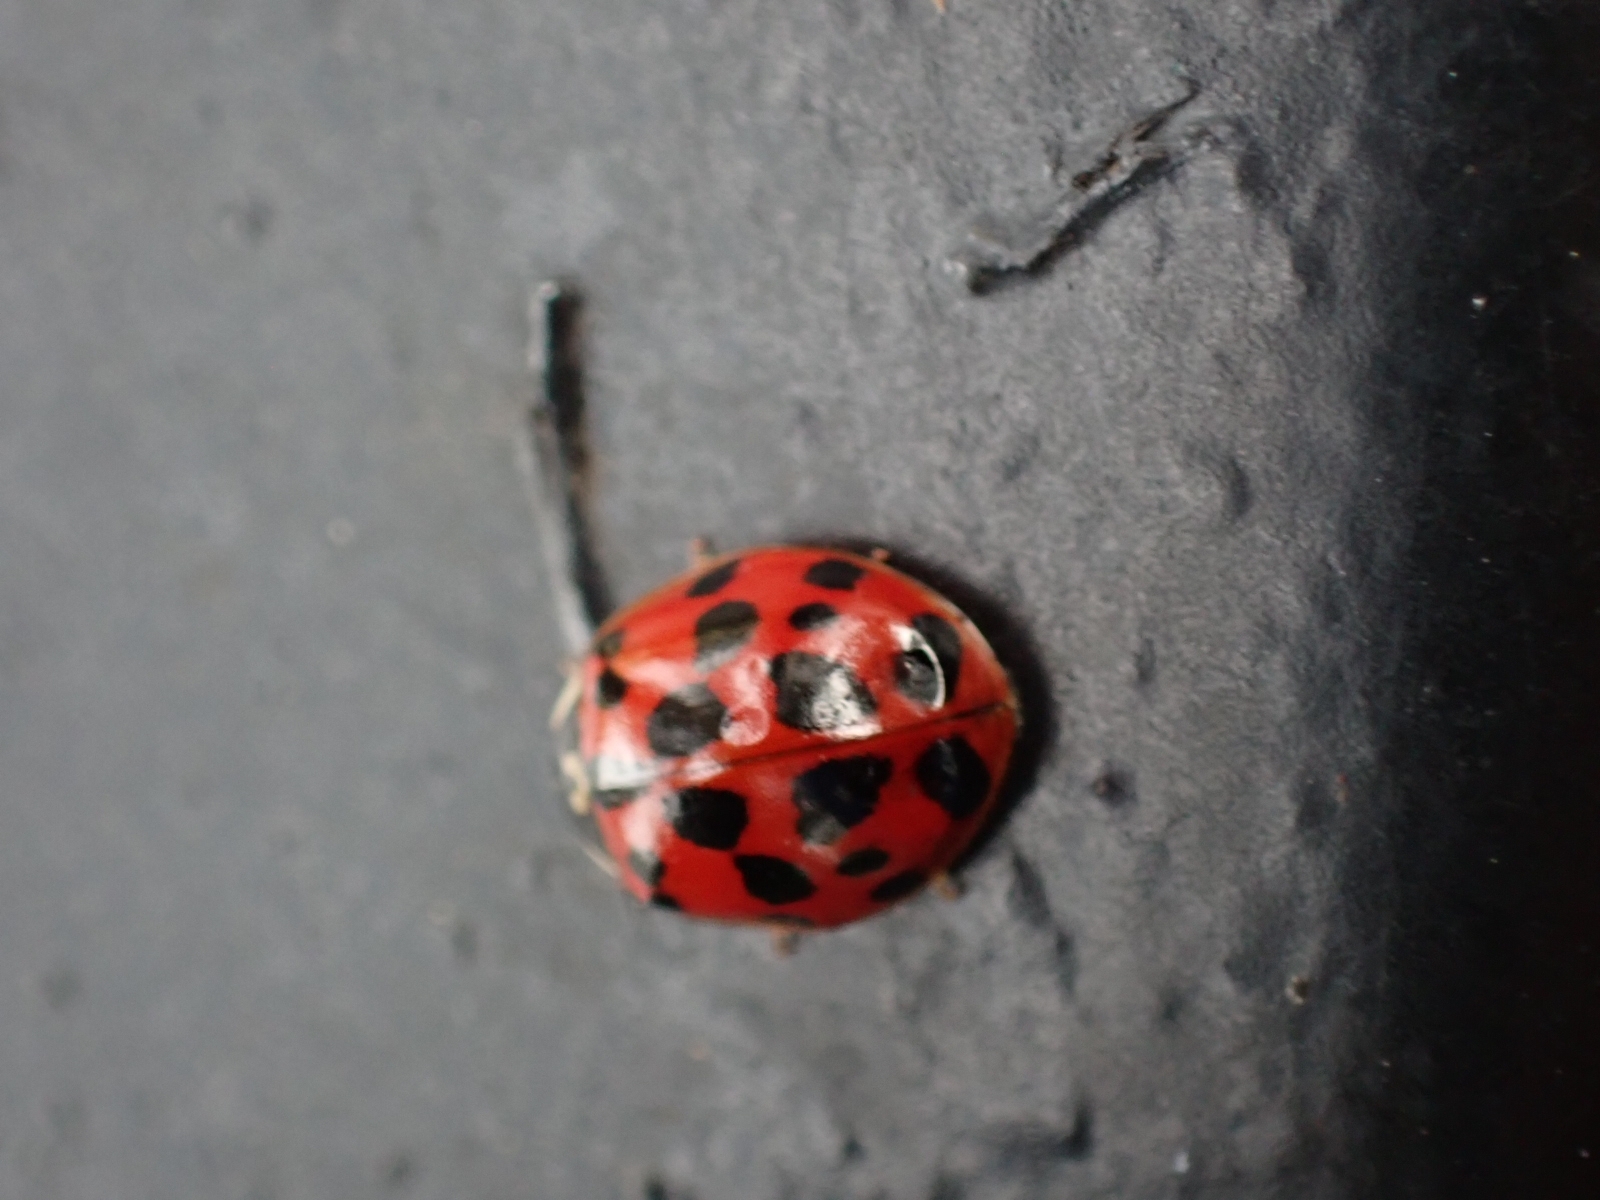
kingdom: Animalia
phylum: Arthropoda
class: Insecta
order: Coleoptera
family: Coccinellidae
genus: Harmonia
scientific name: Harmonia axyridis
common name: Harlequin ladybird
